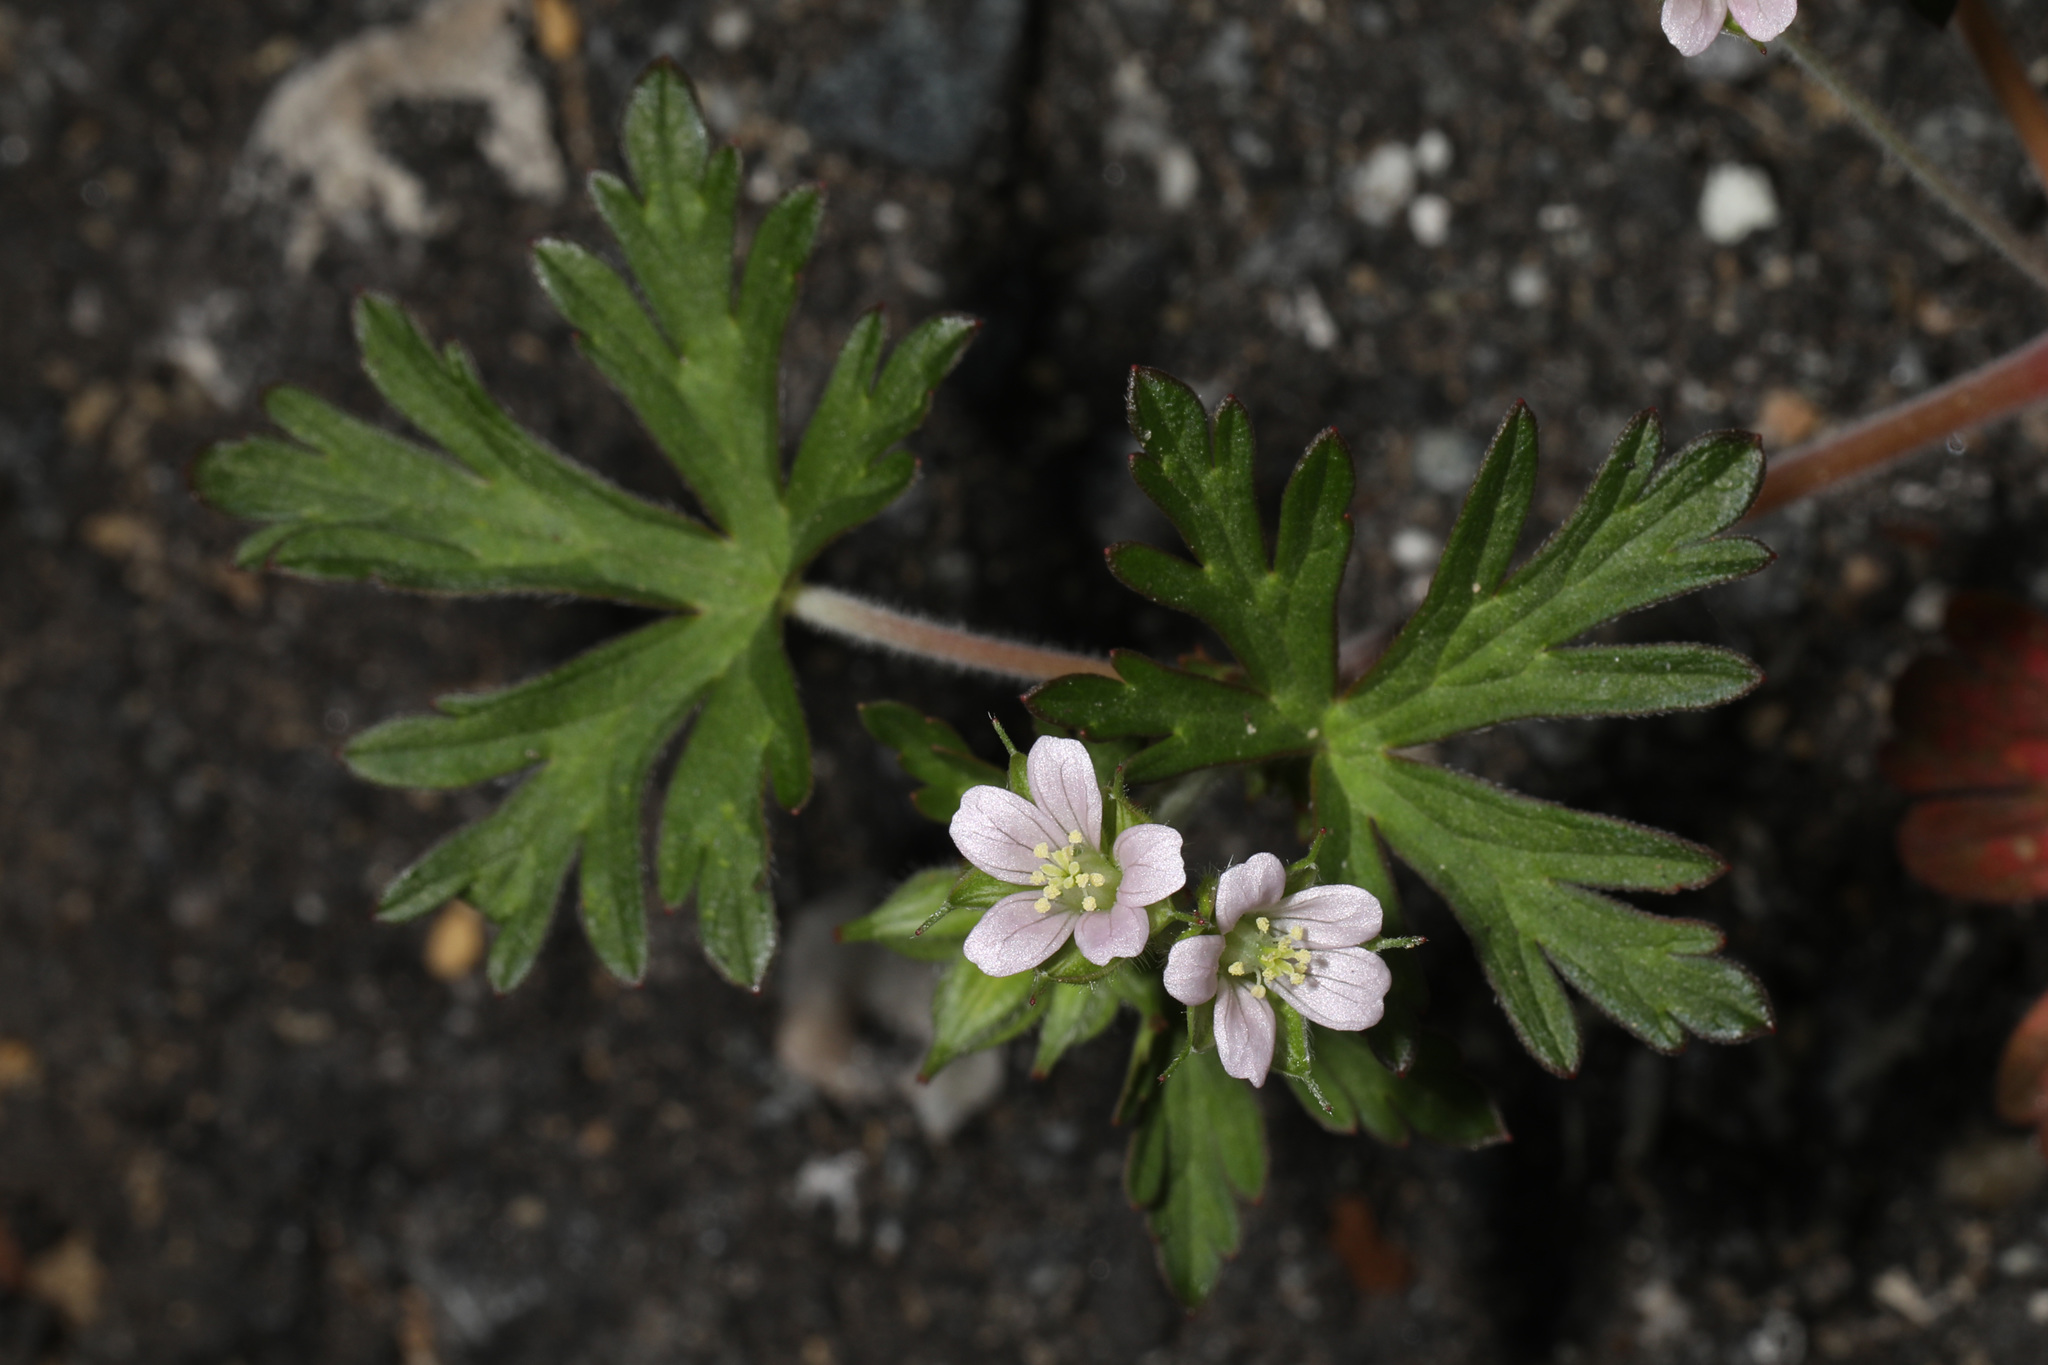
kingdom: Plantae
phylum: Tracheophyta
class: Magnoliopsida
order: Geraniales
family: Geraniaceae
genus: Geranium
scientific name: Geranium carolinianum
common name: Carolina crane's-bill
